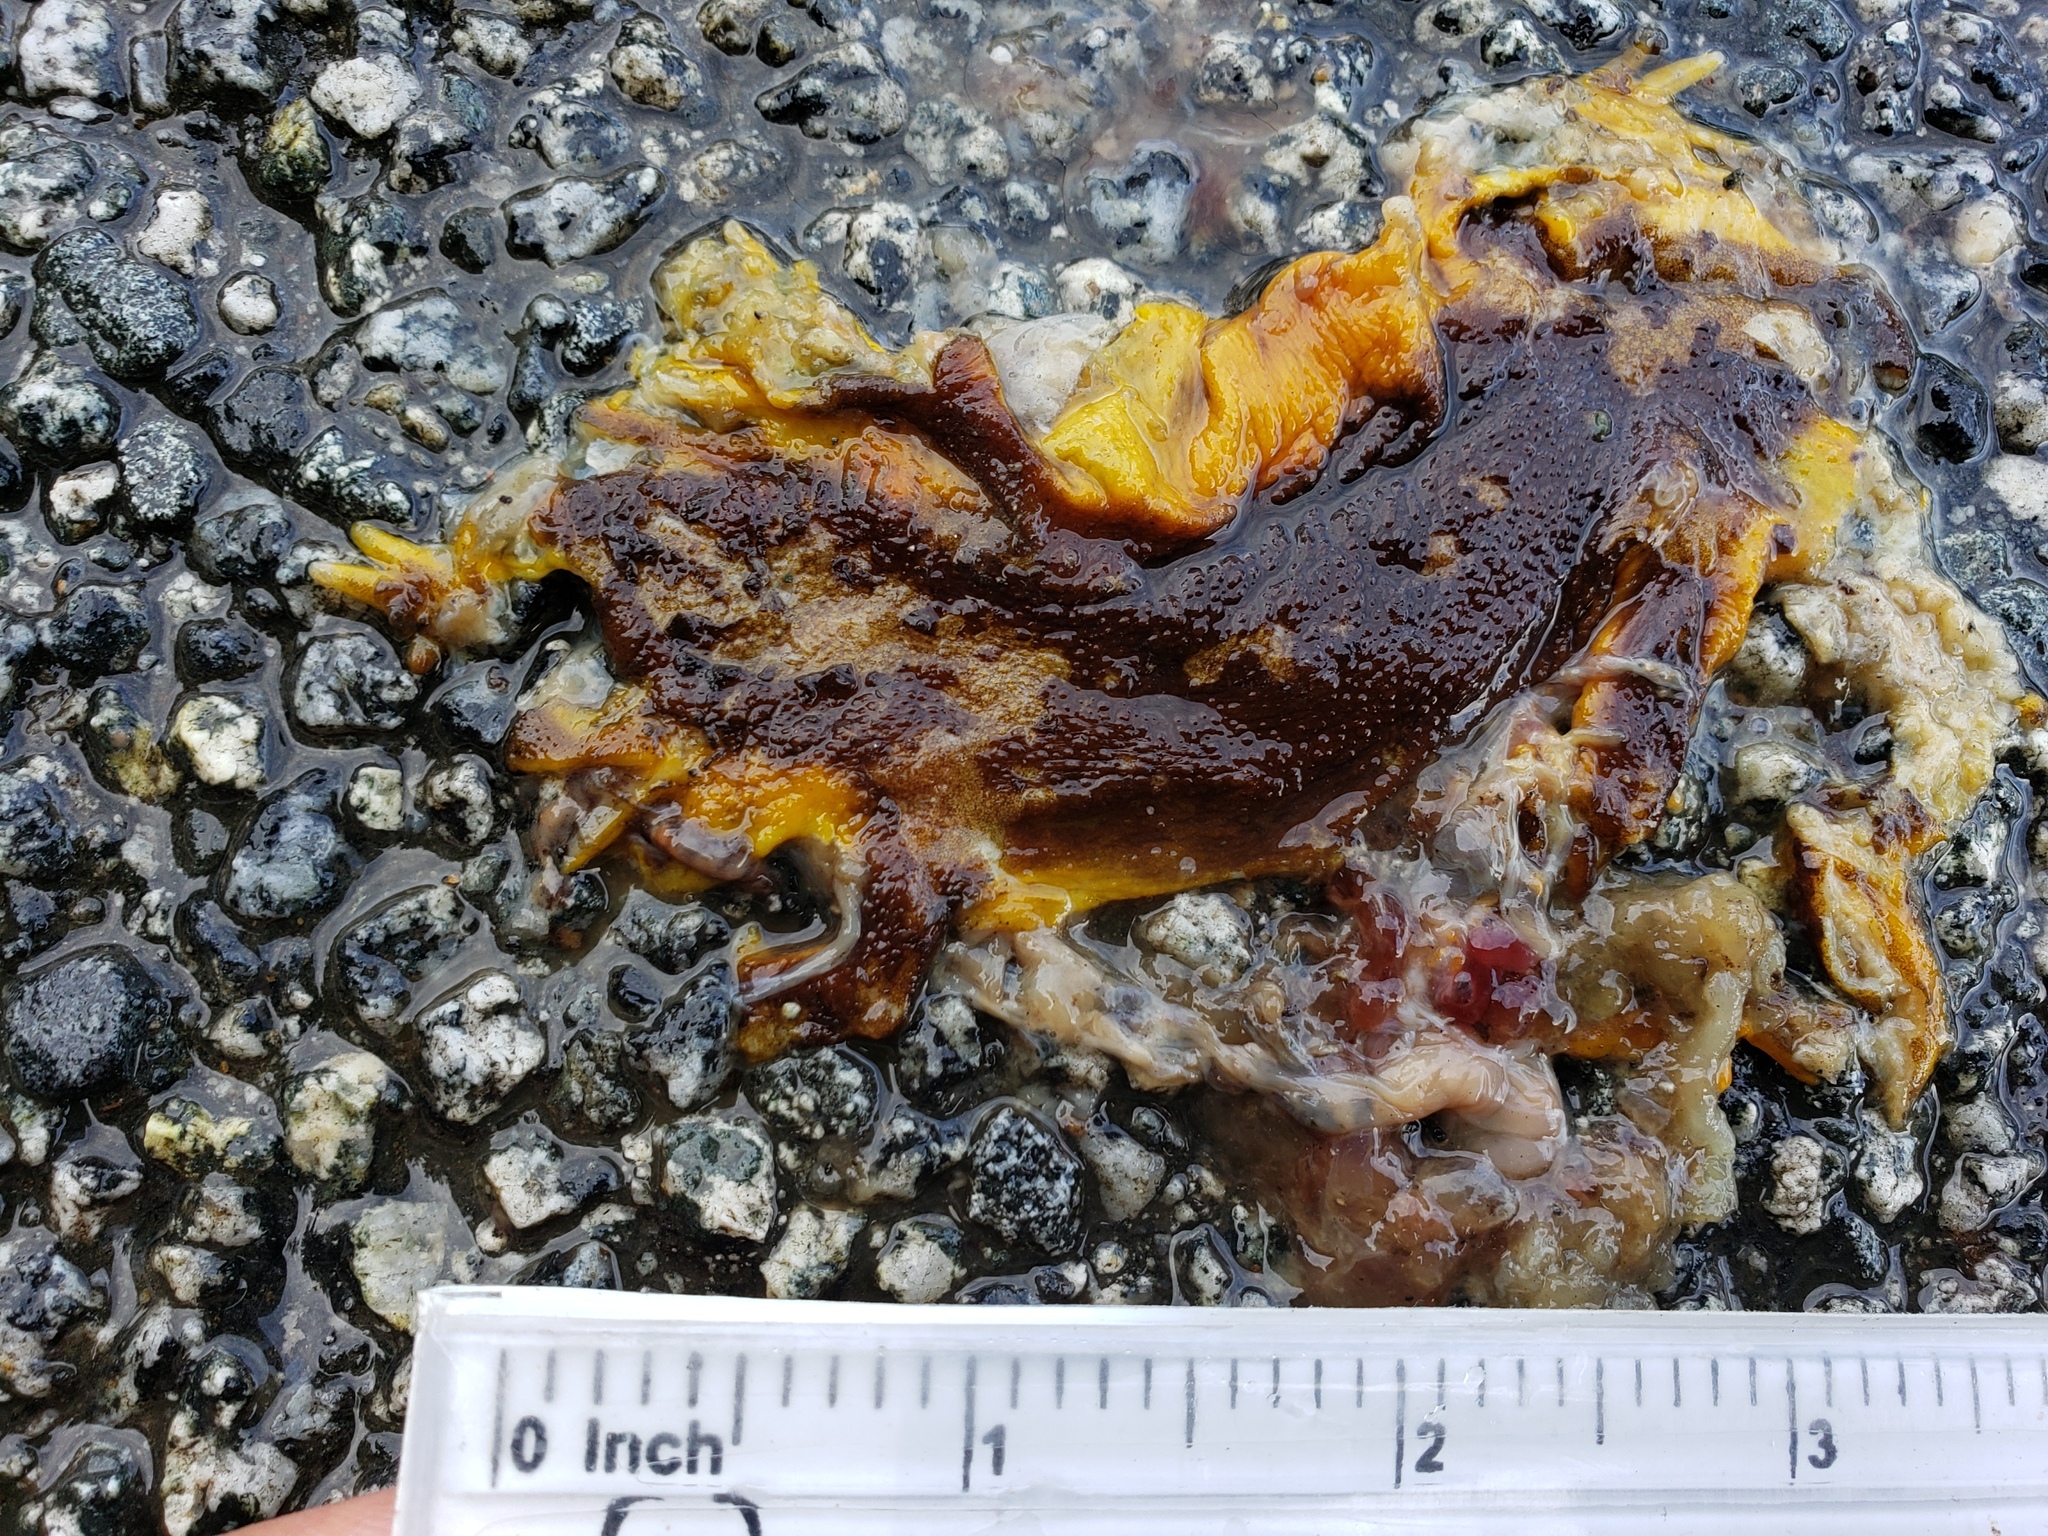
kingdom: Animalia
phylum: Chordata
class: Amphibia
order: Caudata
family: Salamandridae
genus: Taricha
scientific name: Taricha
